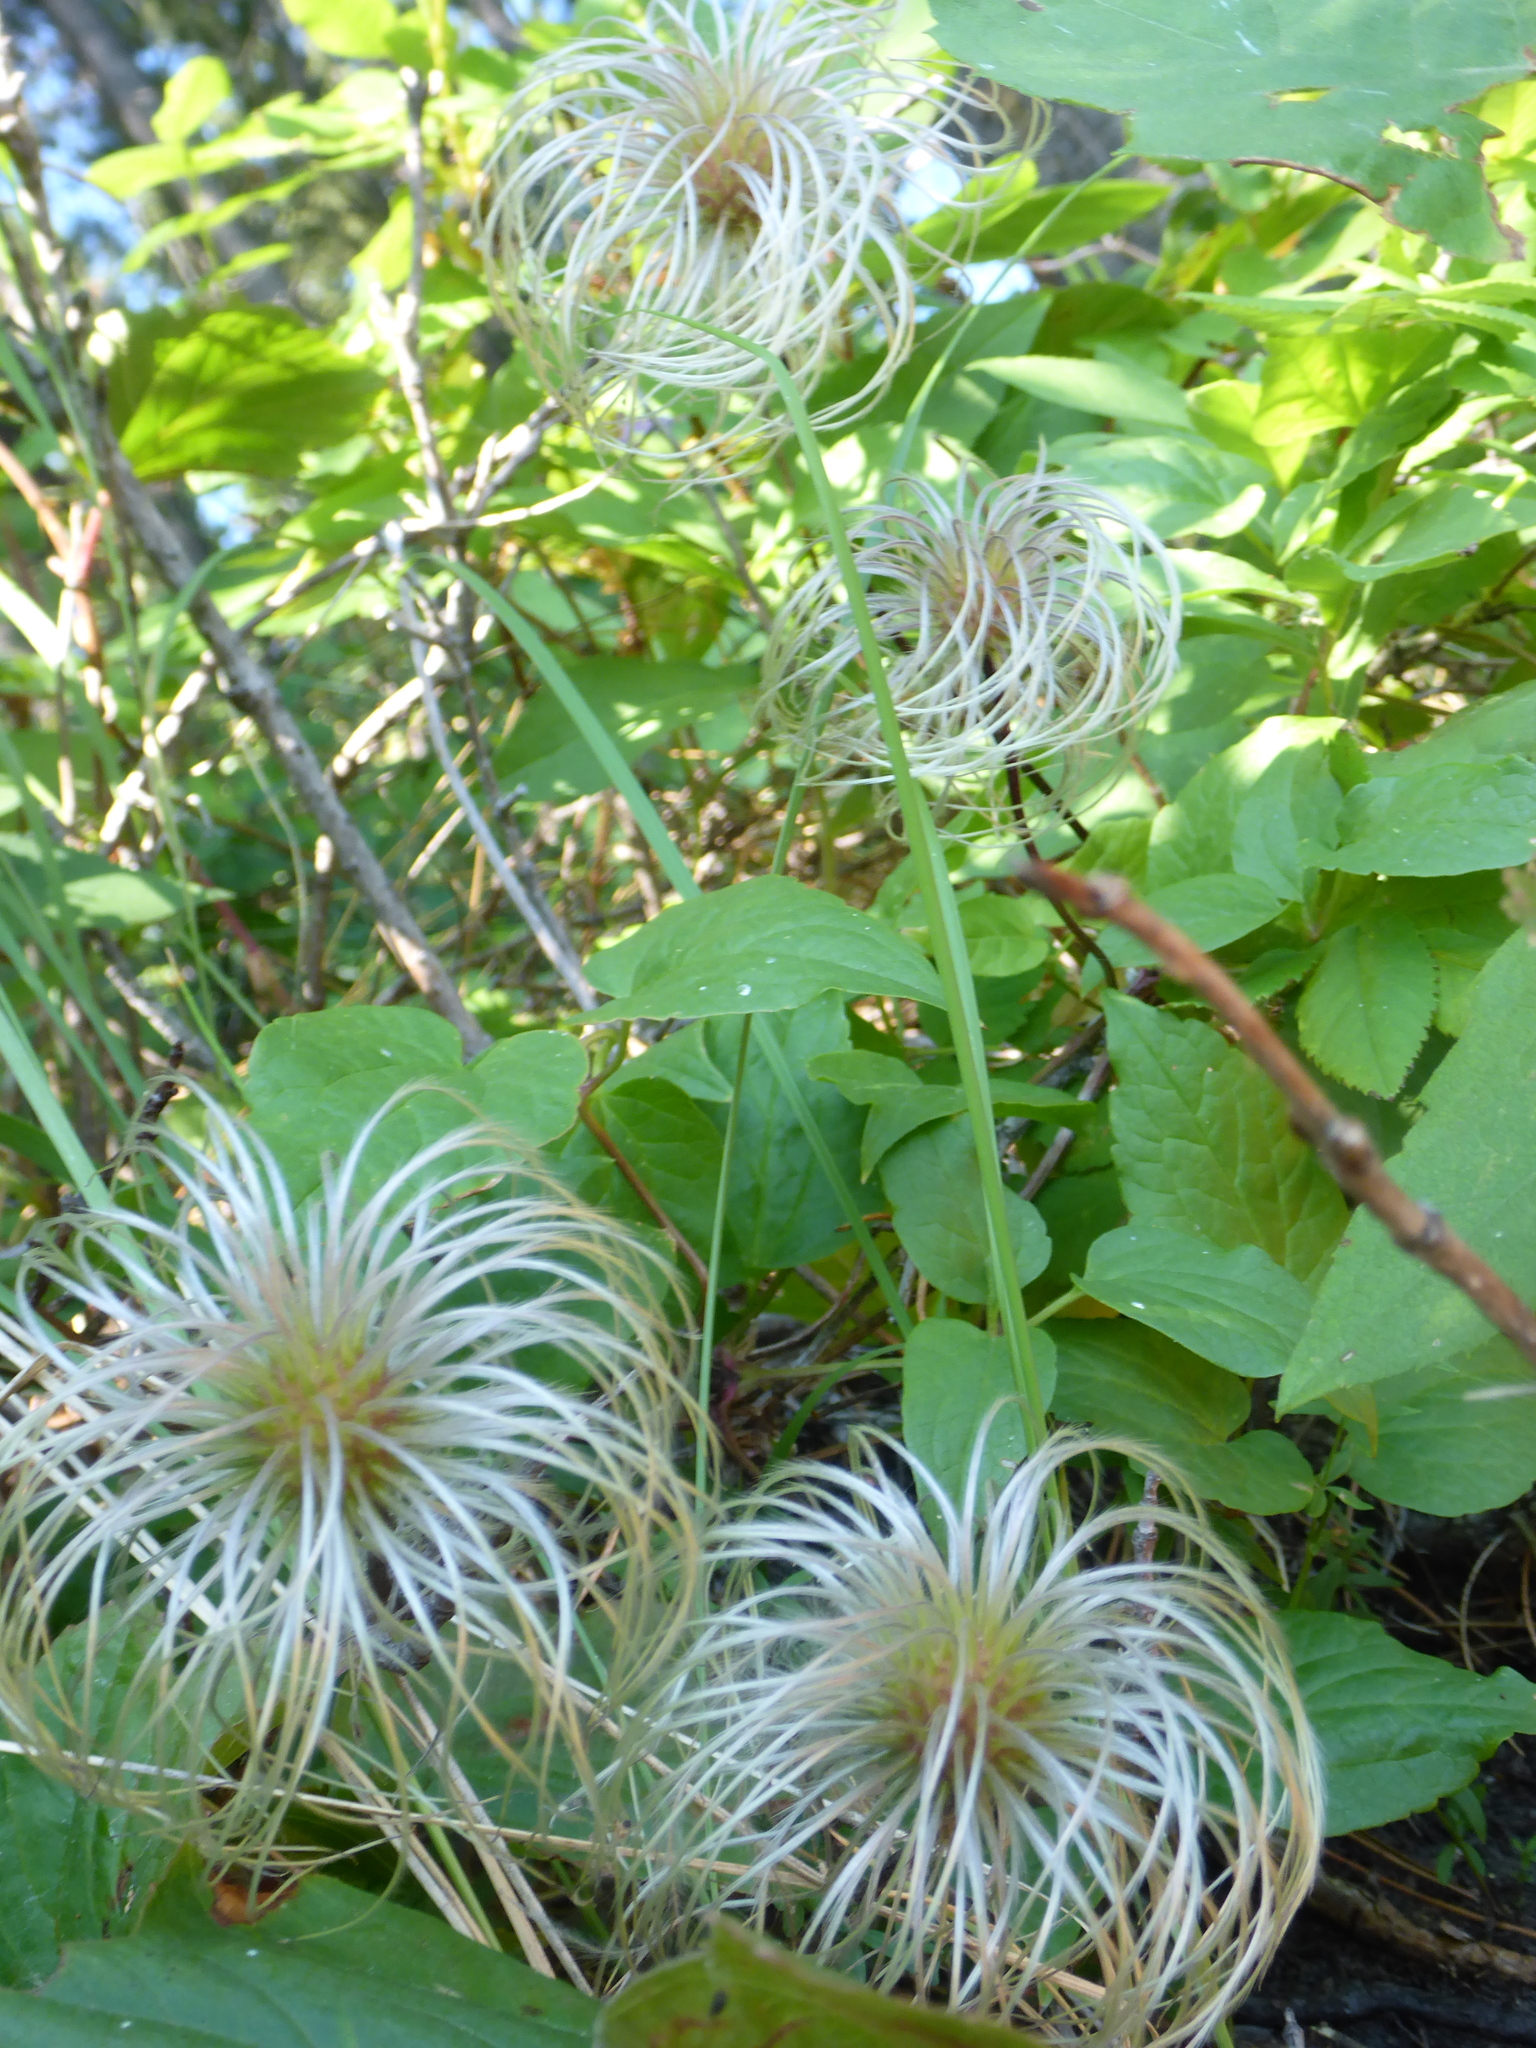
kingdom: Plantae
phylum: Tracheophyta
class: Magnoliopsida
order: Ranunculales
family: Ranunculaceae
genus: Clematis
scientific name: Clematis occidentalis
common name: Purple clematis
